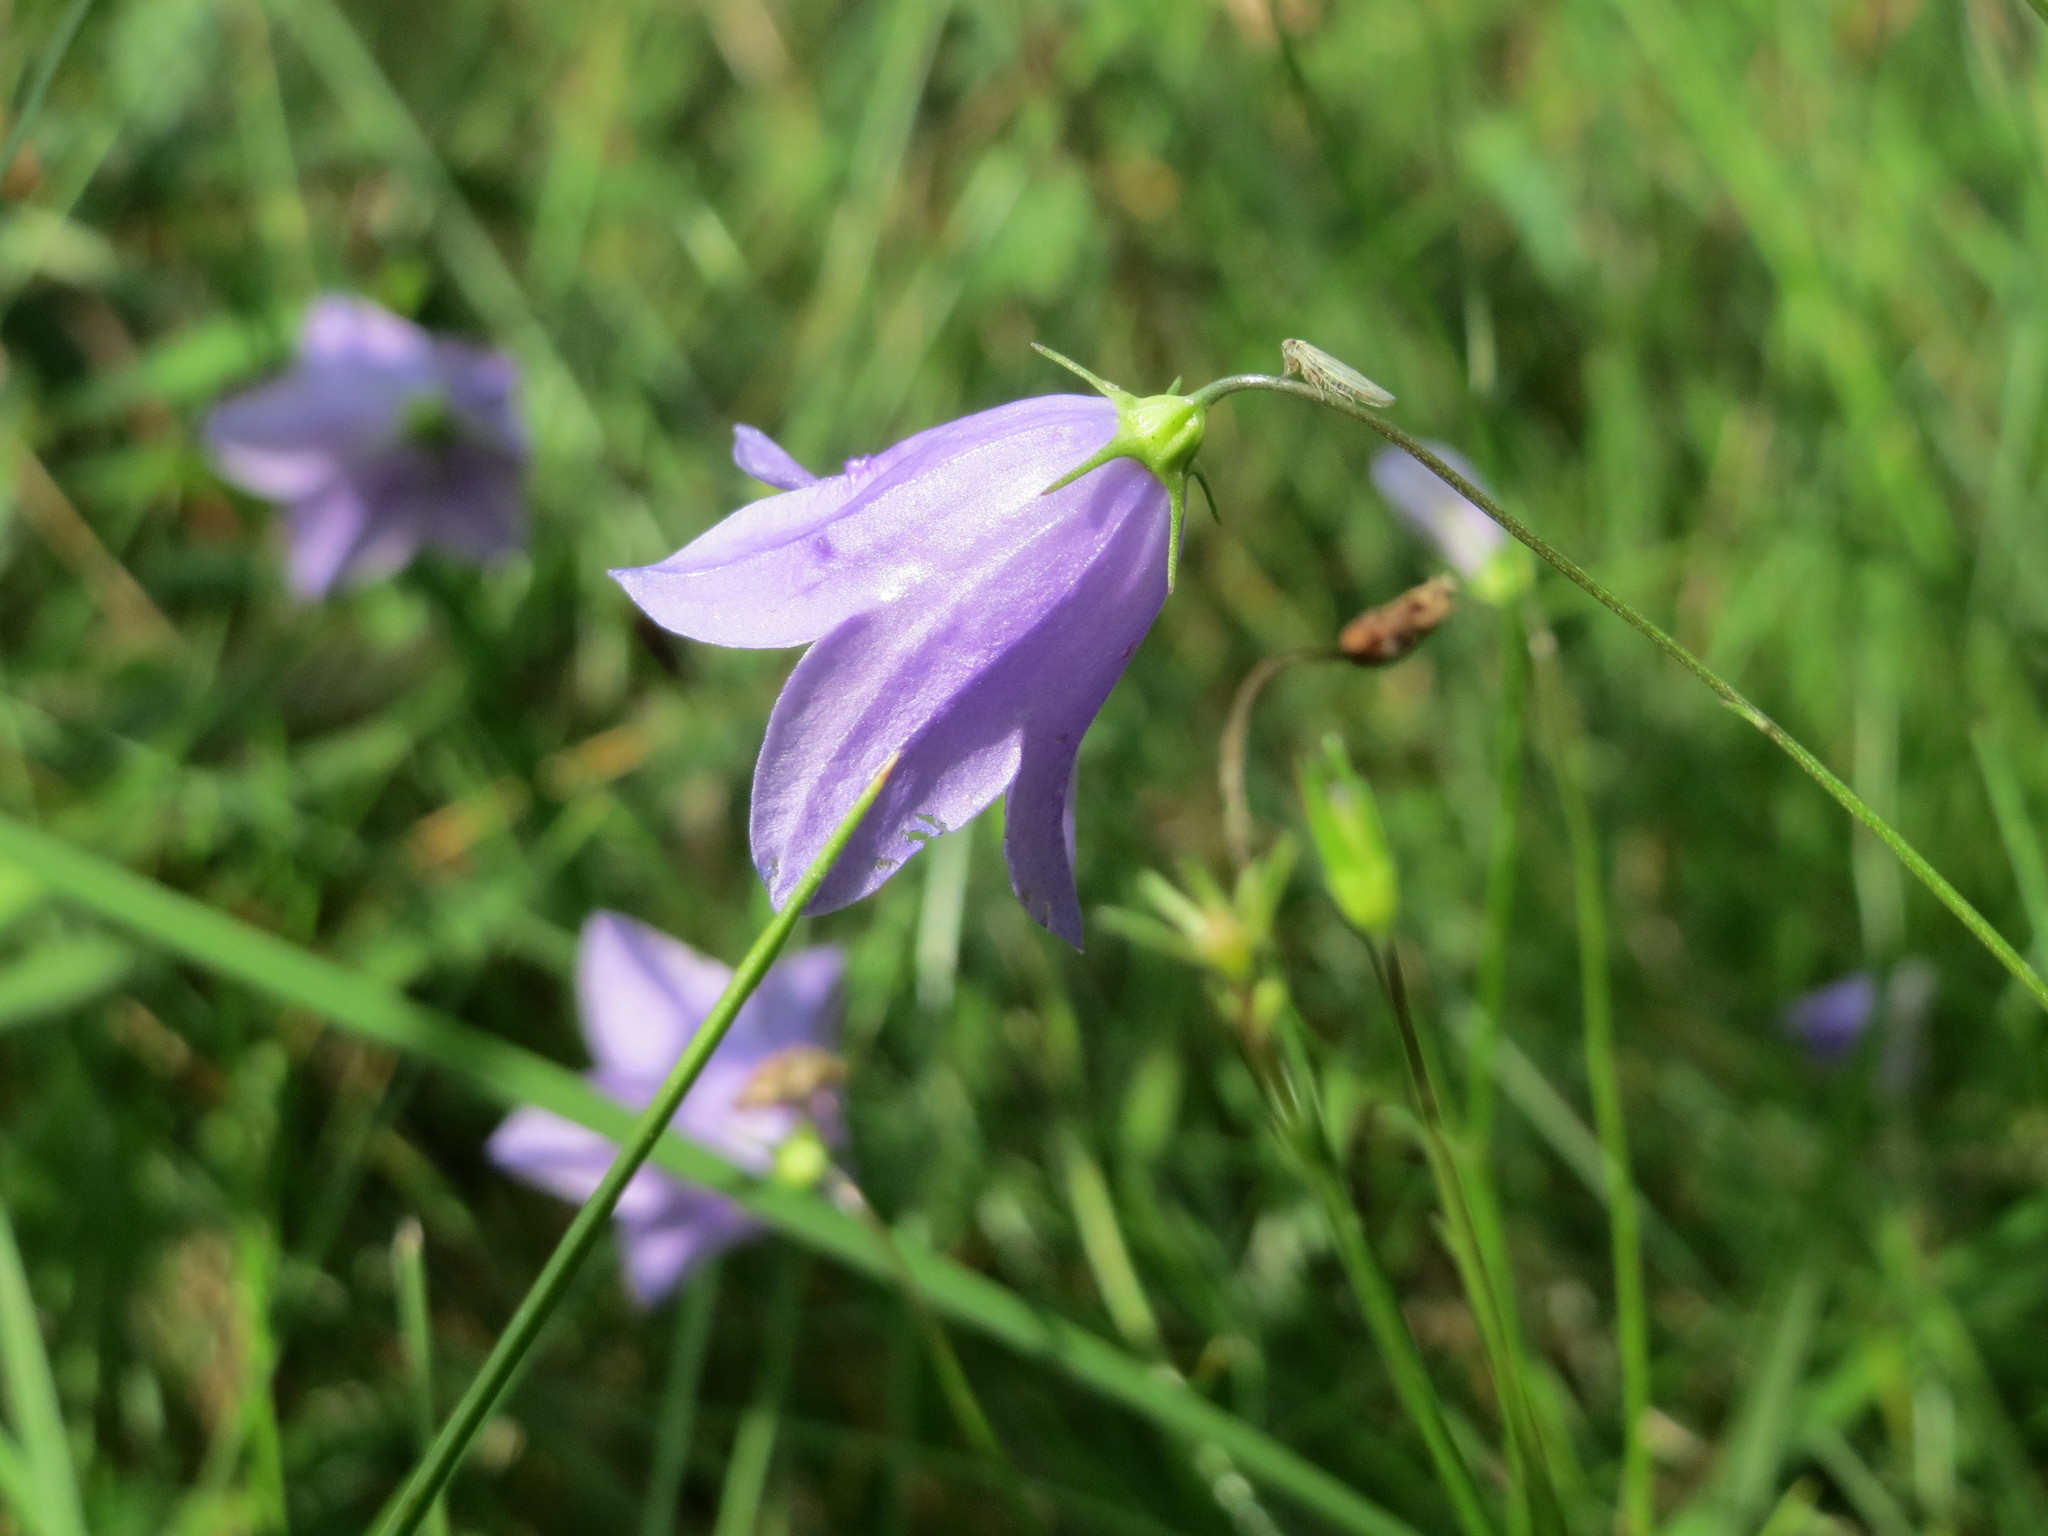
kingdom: Plantae
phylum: Tracheophyta
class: Magnoliopsida
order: Asterales
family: Campanulaceae
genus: Campanula
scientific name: Campanula rotundifolia
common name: Harebell
